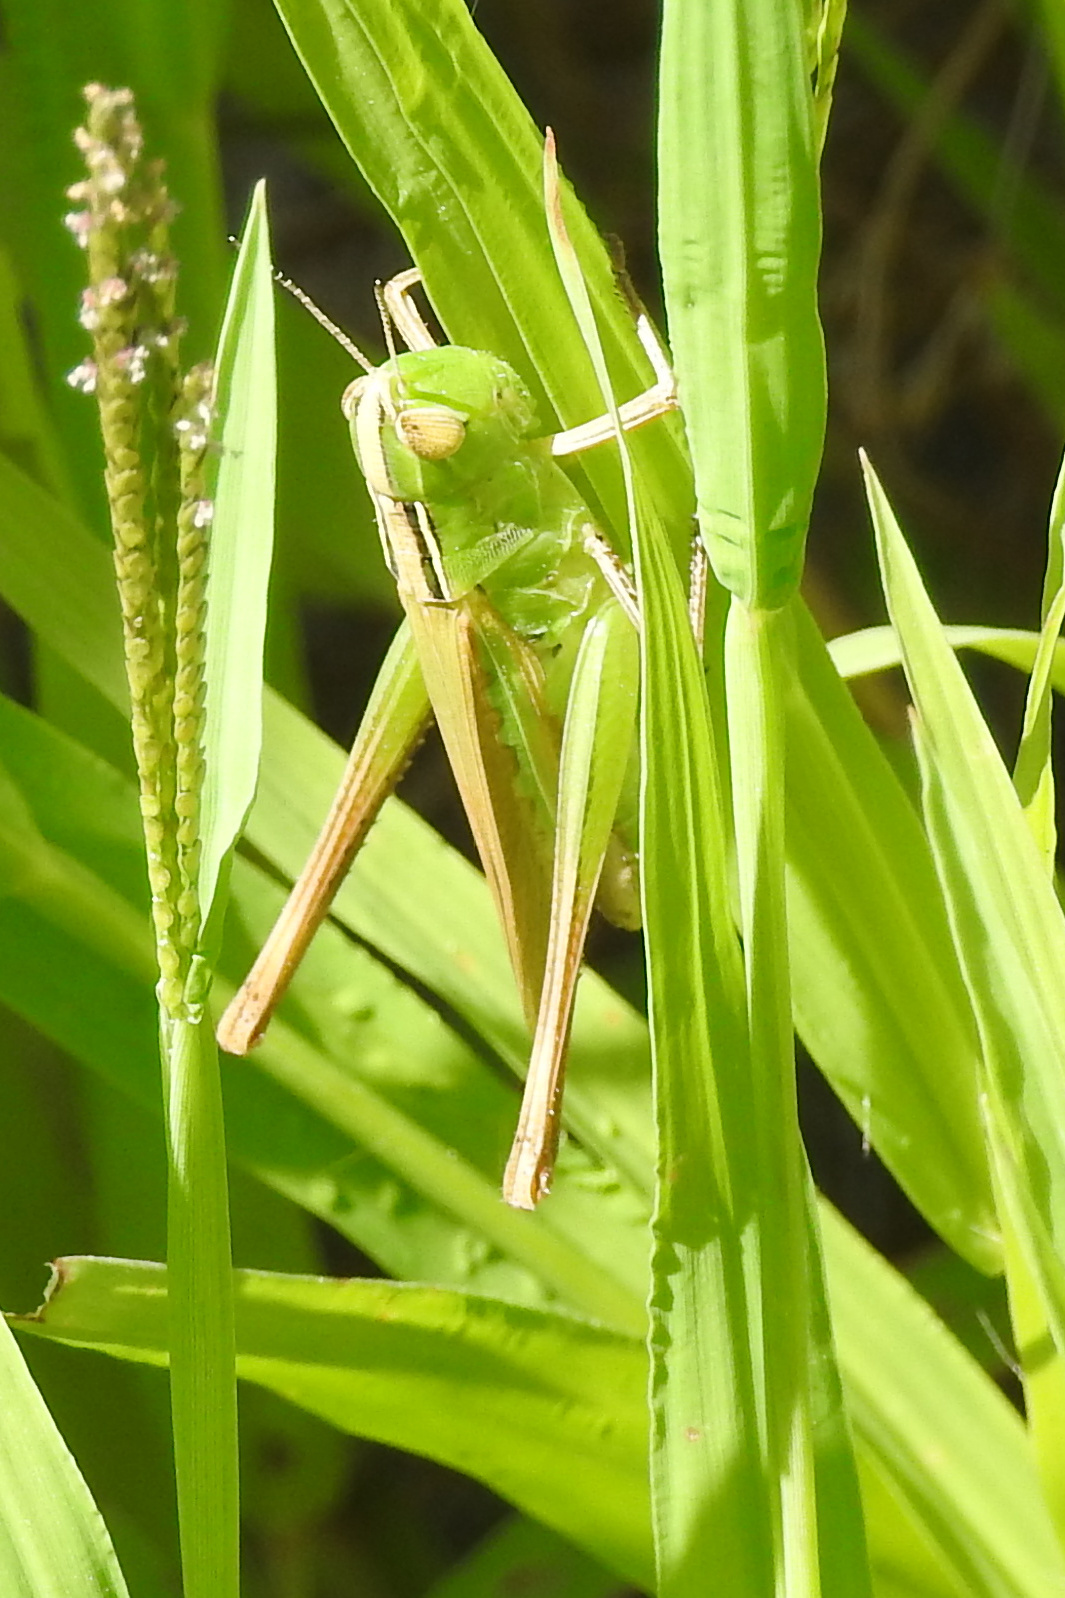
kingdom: Animalia
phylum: Arthropoda
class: Insecta
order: Orthoptera
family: Acrididae
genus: Syrbula
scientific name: Syrbula admirabilis
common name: Handsome grasshopper
